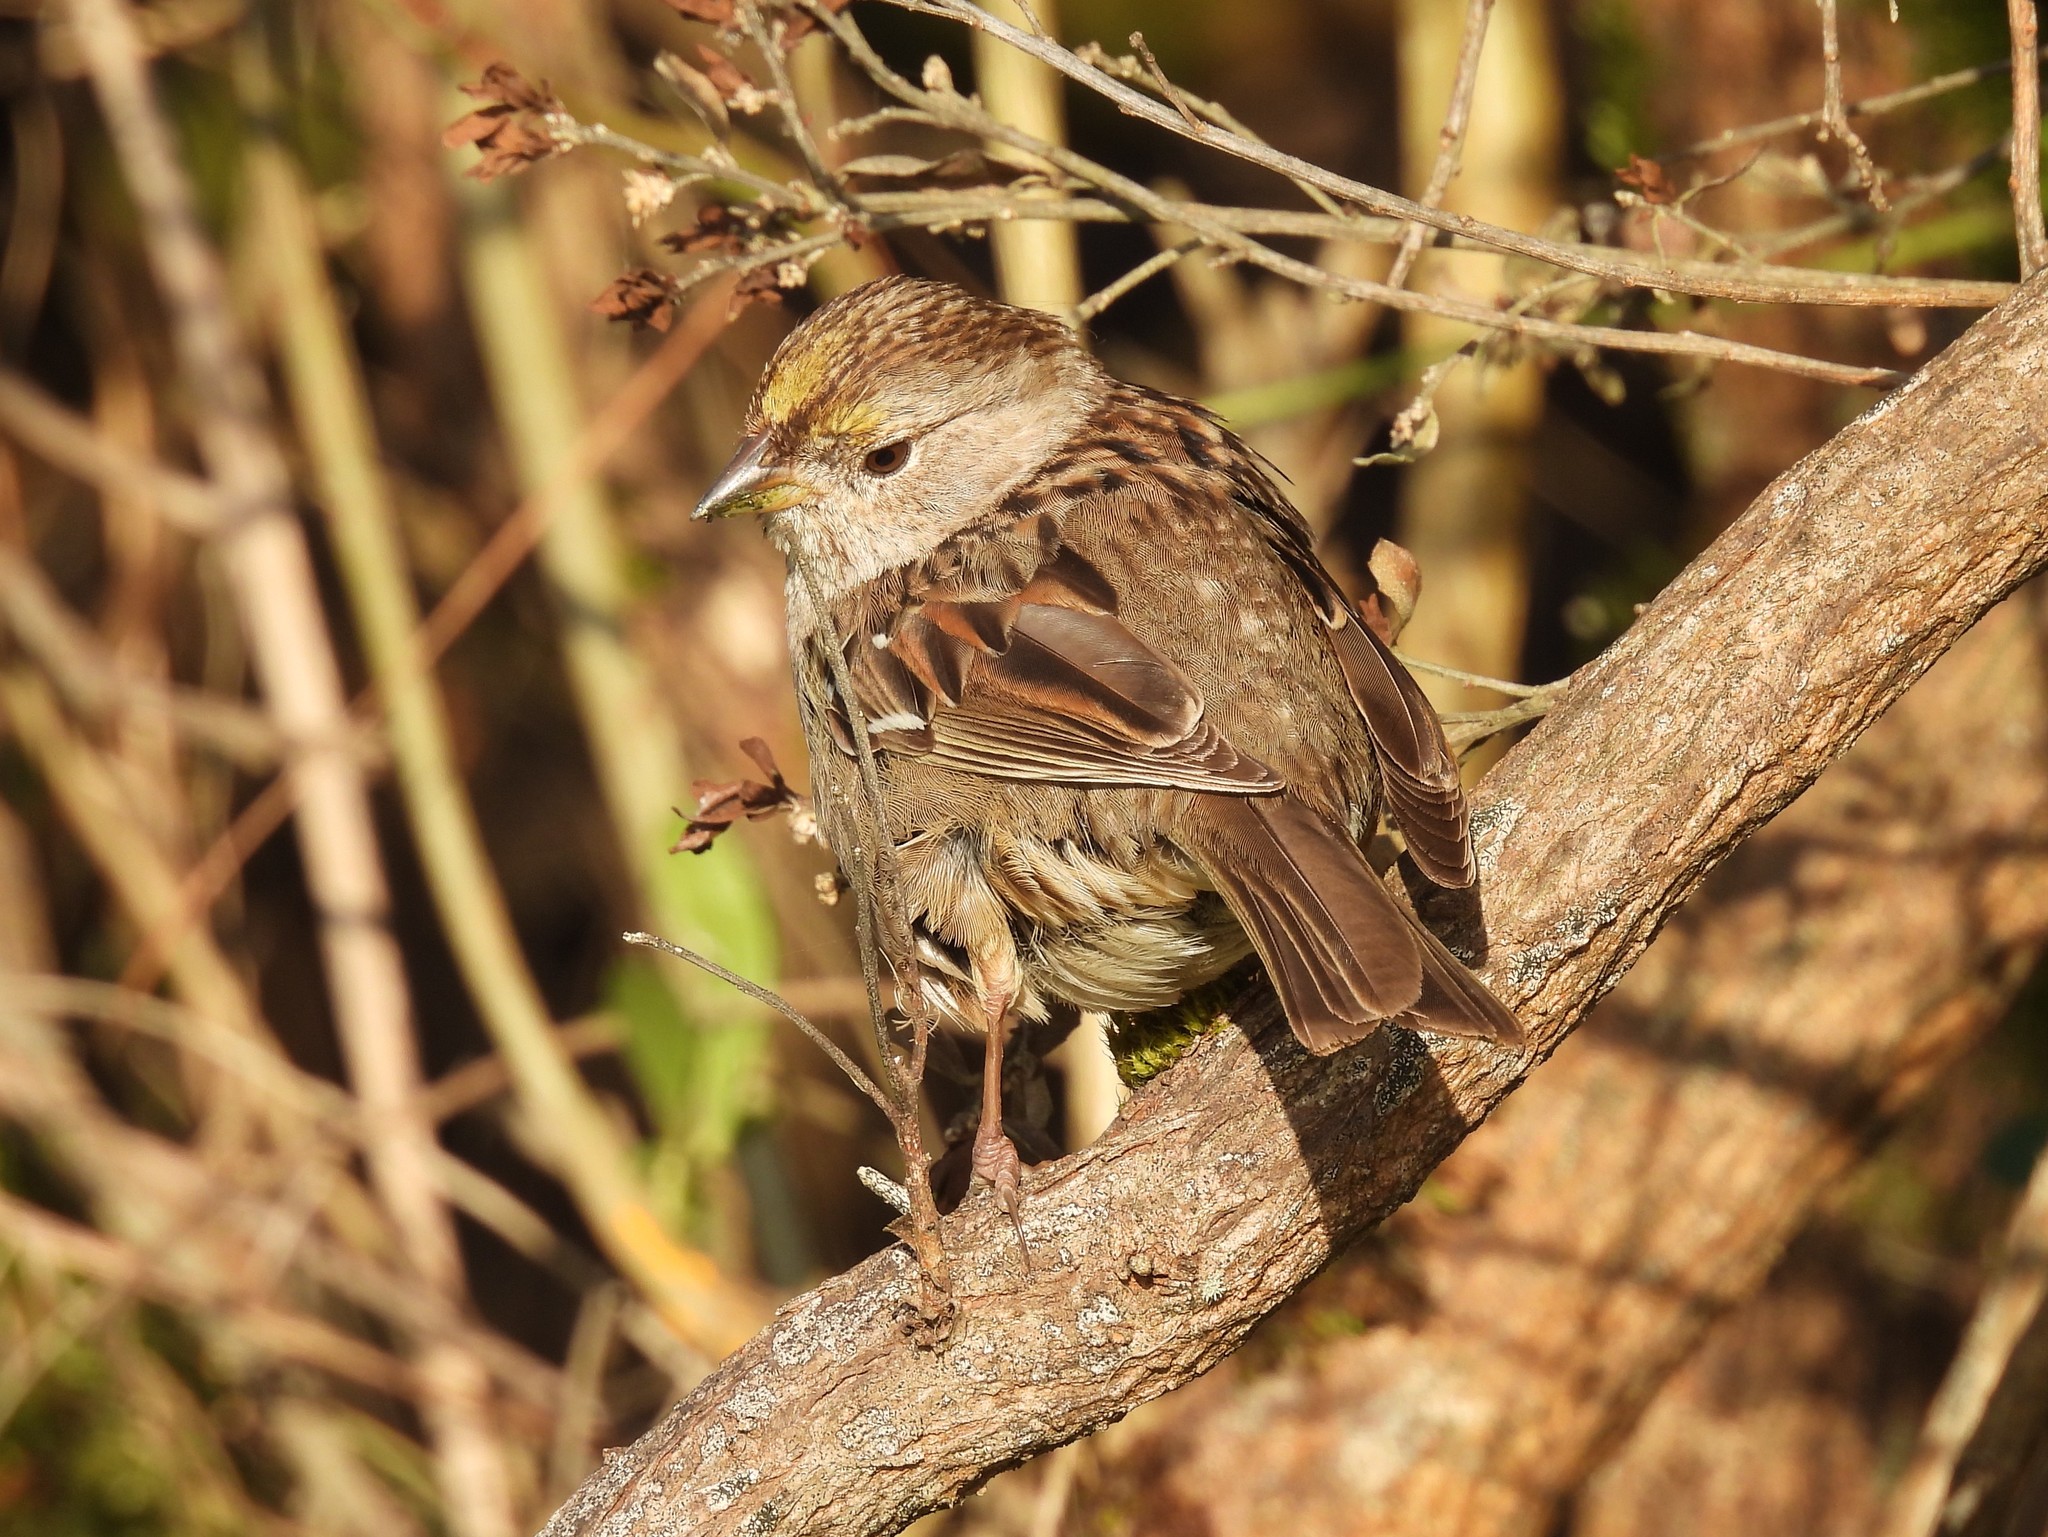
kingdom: Animalia
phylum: Chordata
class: Aves
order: Passeriformes
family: Passerellidae
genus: Zonotrichia
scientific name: Zonotrichia atricapilla
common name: Golden-crowned sparrow
